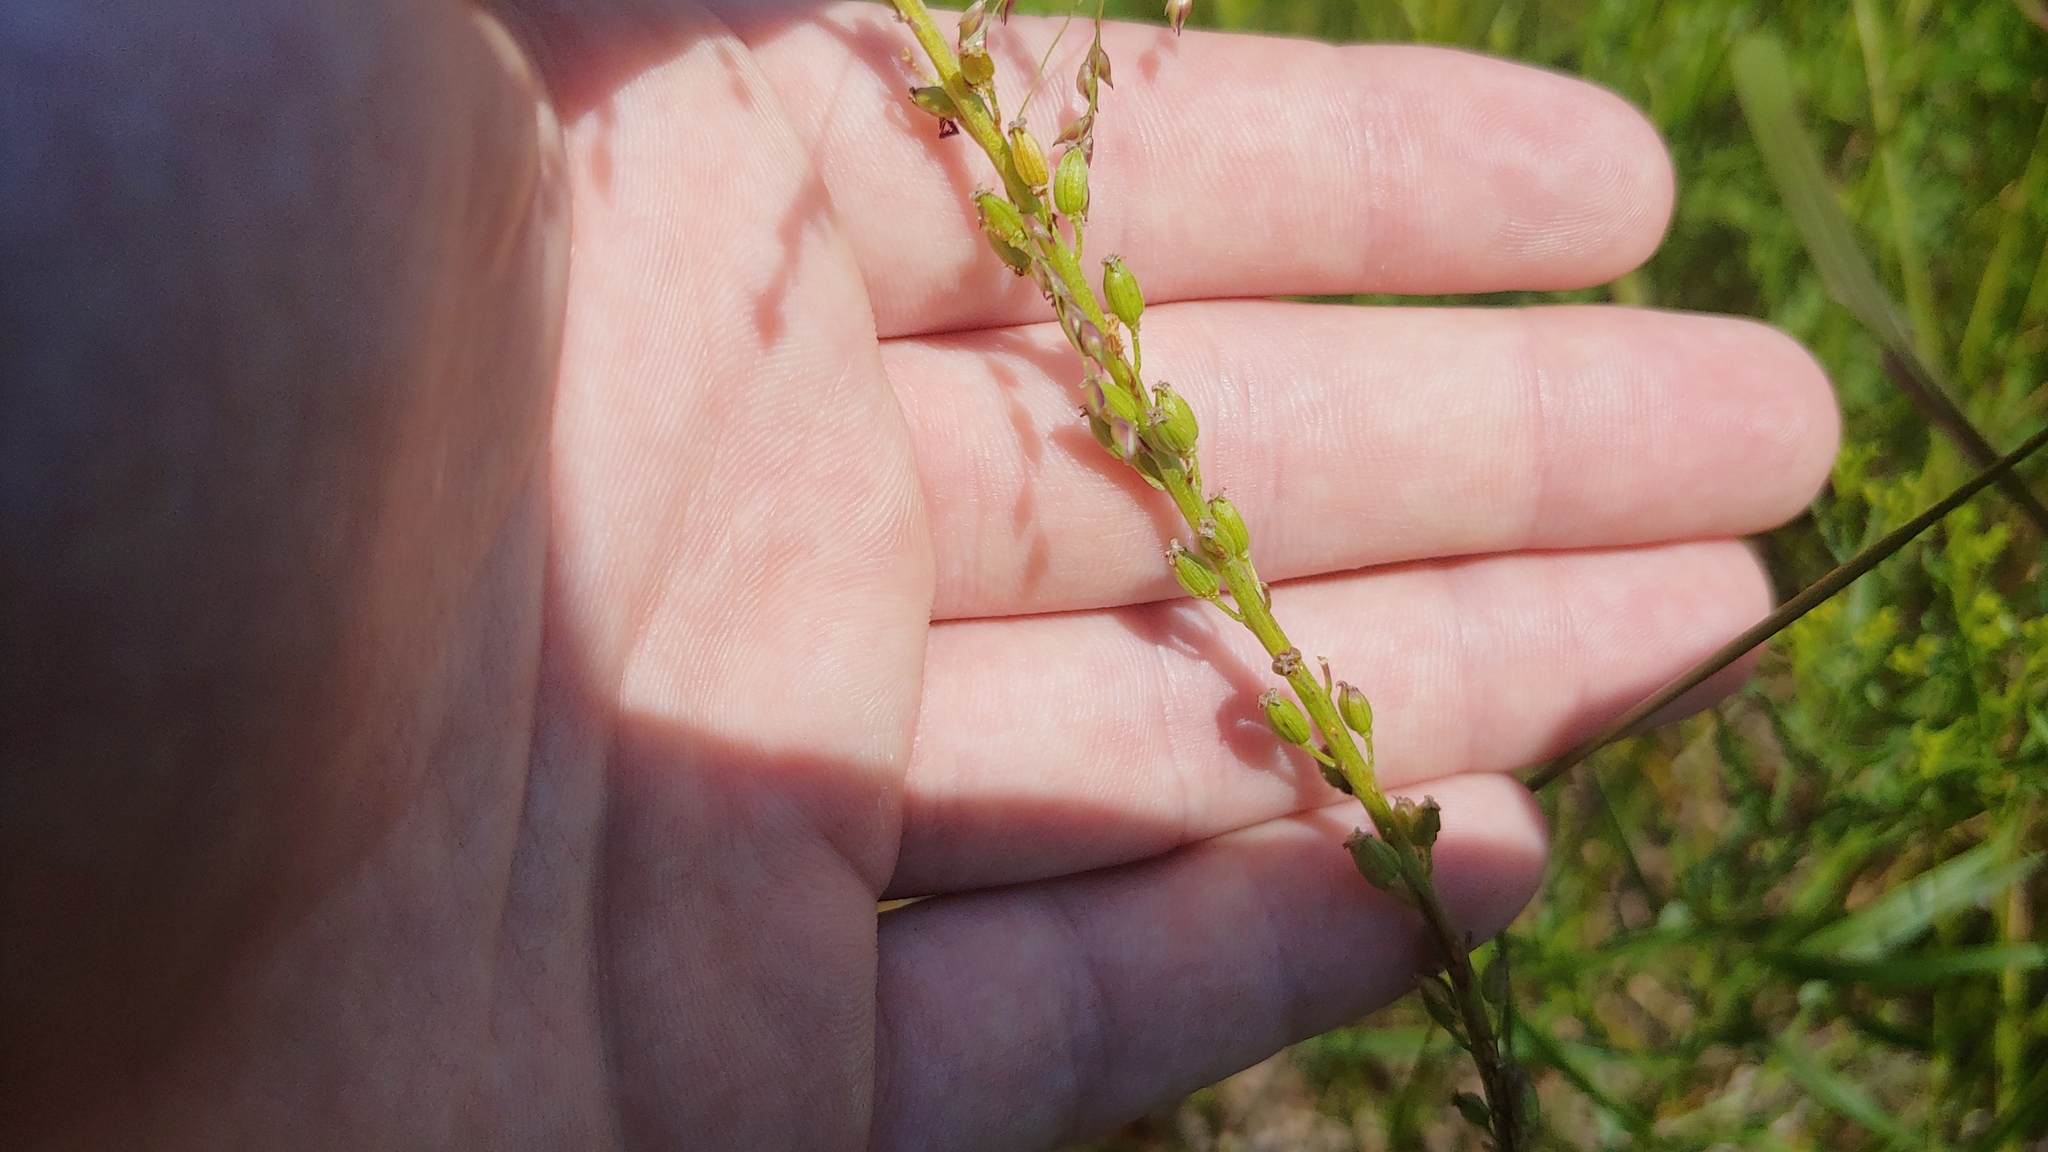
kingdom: Plantae
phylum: Tracheophyta
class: Liliopsida
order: Alismatales
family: Juncaginaceae
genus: Triglochin
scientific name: Triglochin maritima
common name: Sea arrowgrass
